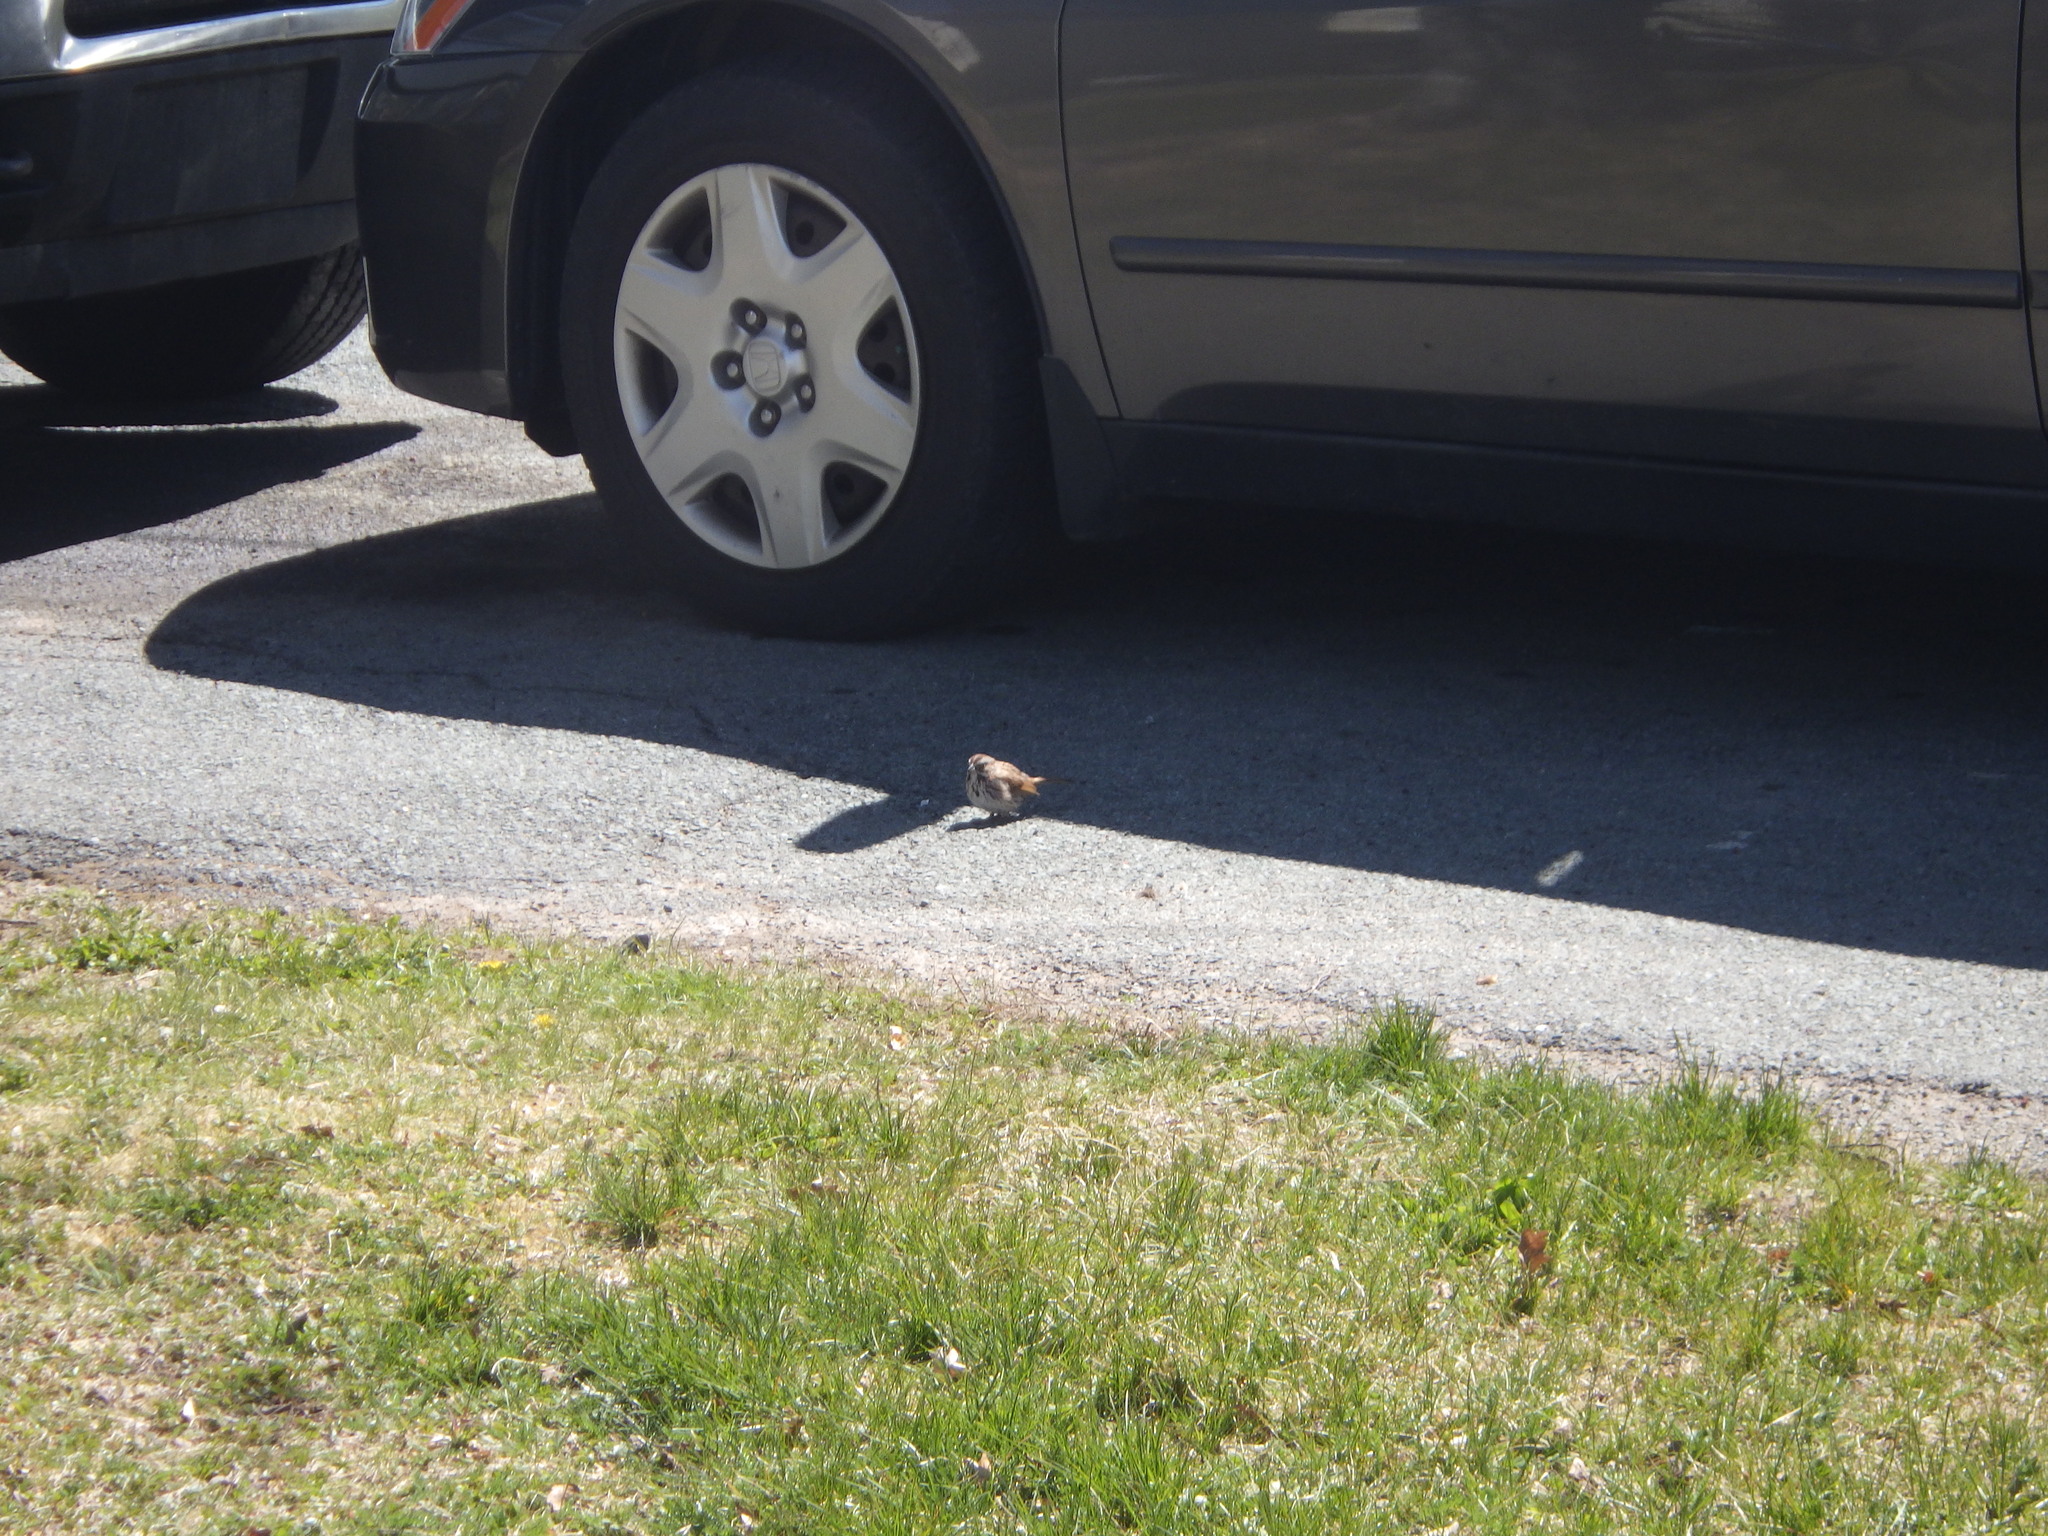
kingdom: Animalia
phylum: Chordata
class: Aves
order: Passeriformes
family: Passerellidae
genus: Melospiza
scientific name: Melospiza melodia
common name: Song sparrow
